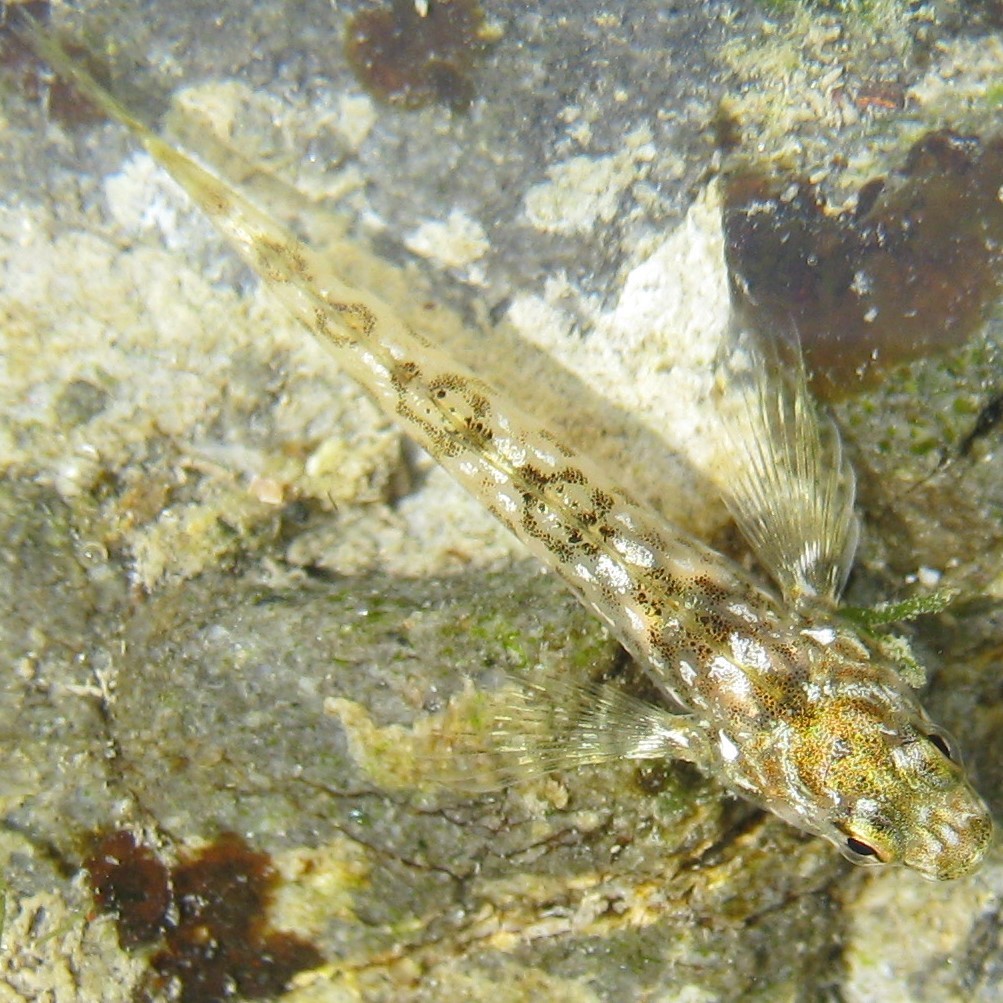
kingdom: Animalia
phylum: Chordata
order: Perciformes
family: Tripterygiidae
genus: Bellapiscis
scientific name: Bellapiscis medius
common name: Twister
